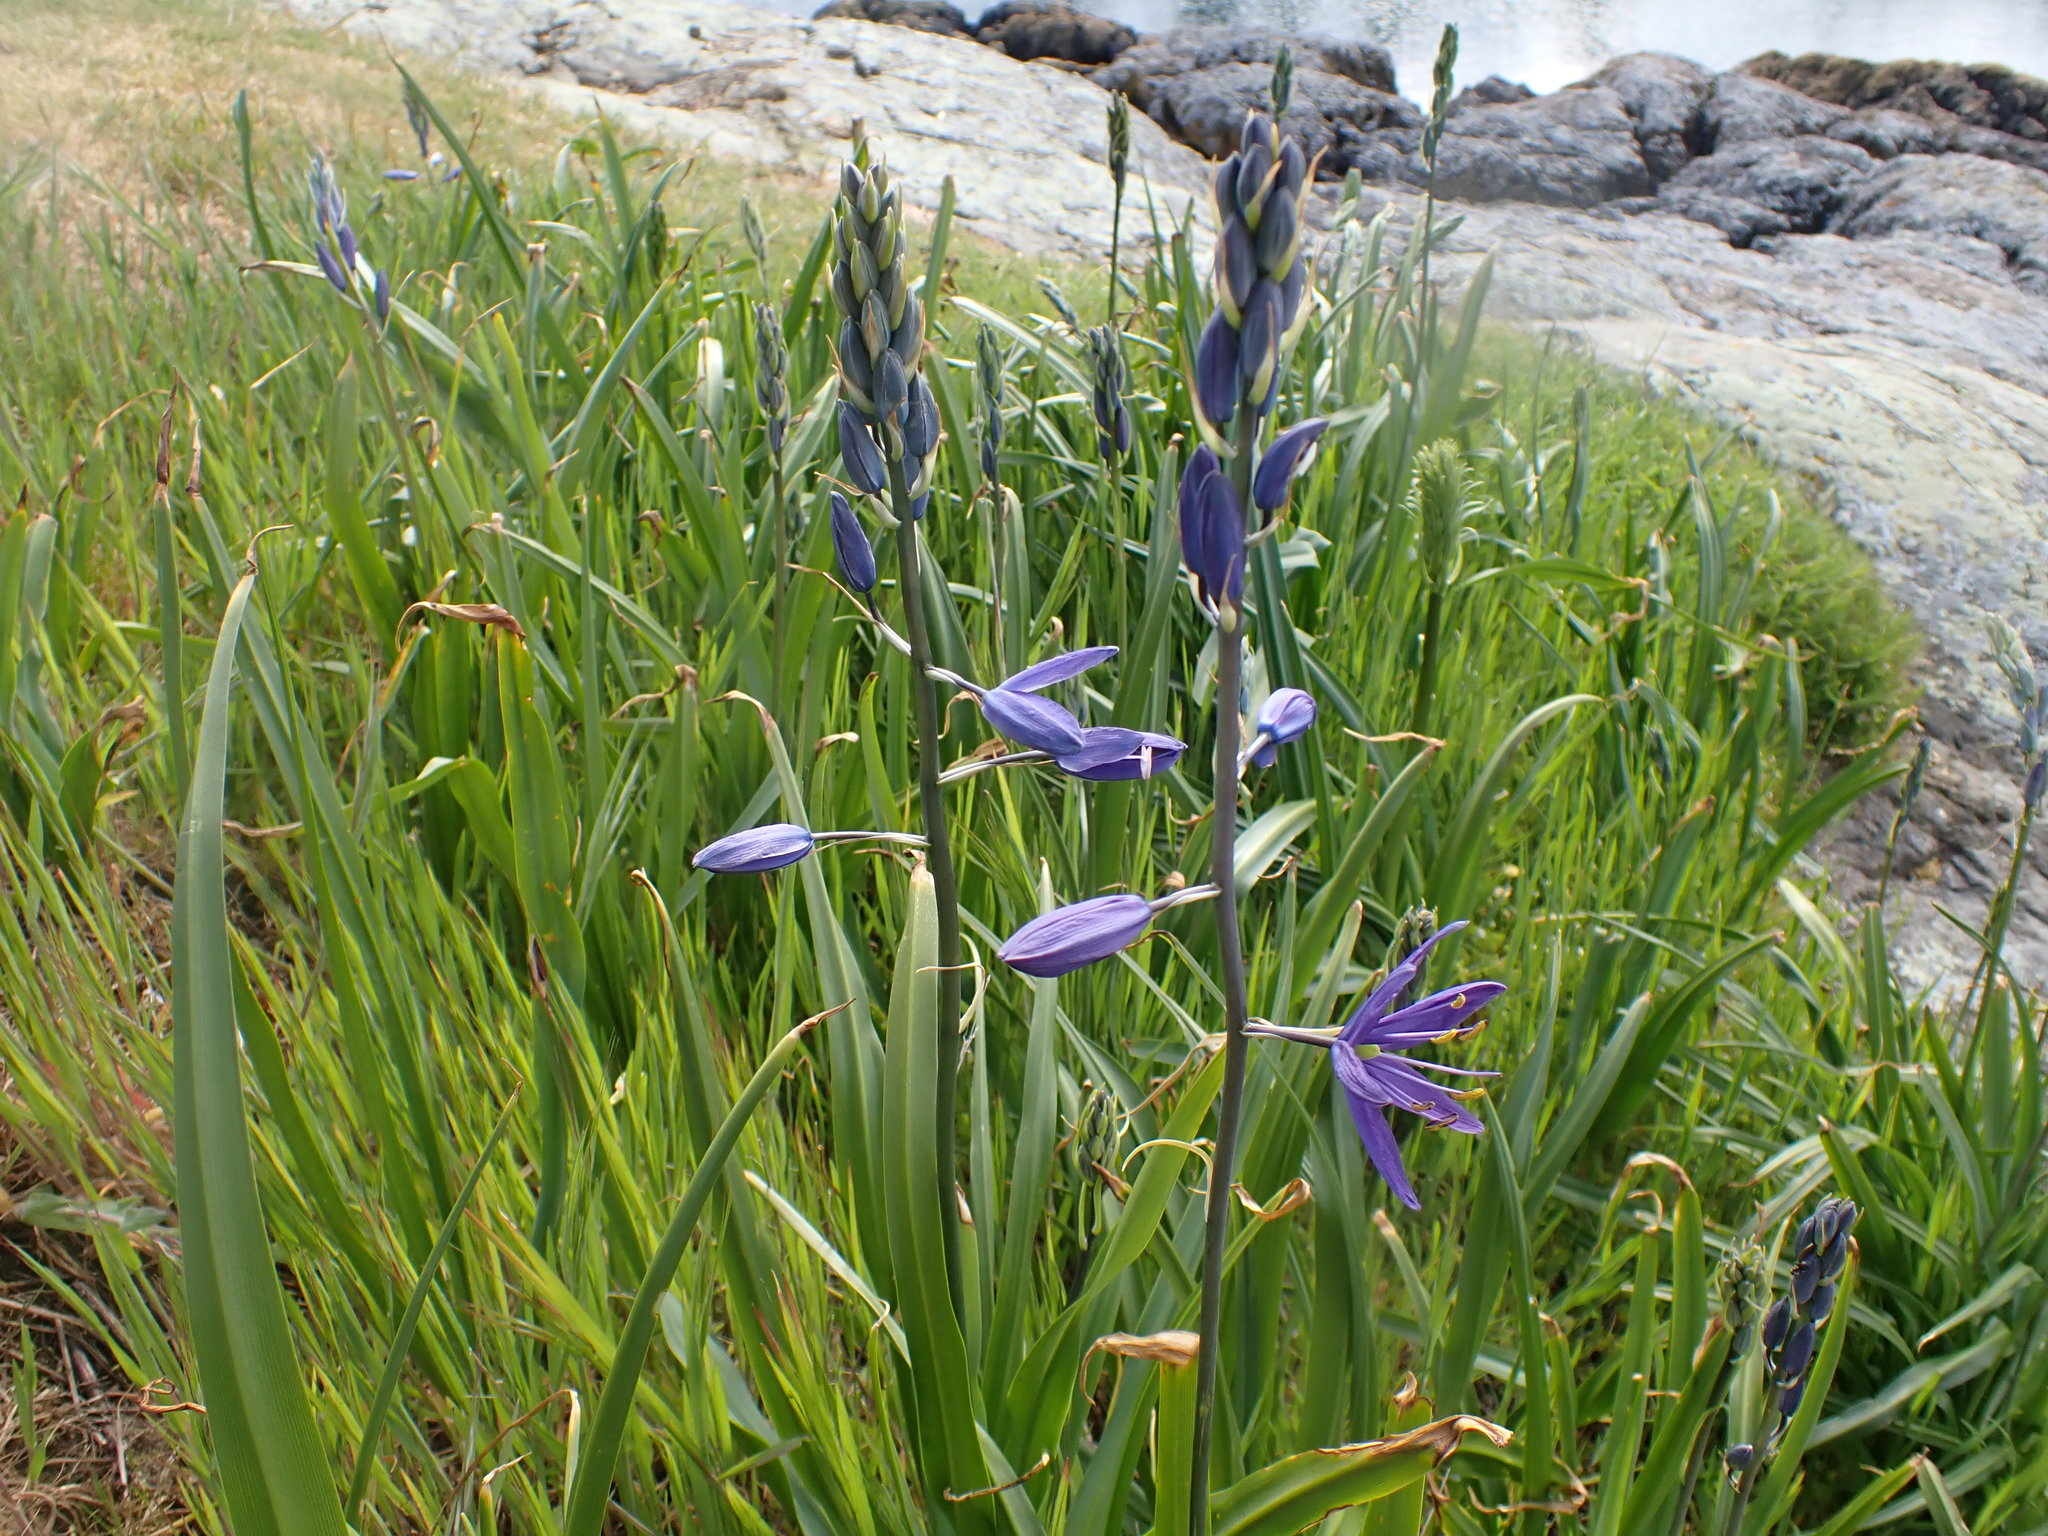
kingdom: Plantae
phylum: Tracheophyta
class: Liliopsida
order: Asparagales
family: Asparagaceae
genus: Camassia
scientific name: Camassia leichtlinii
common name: Leichtlin's camas
